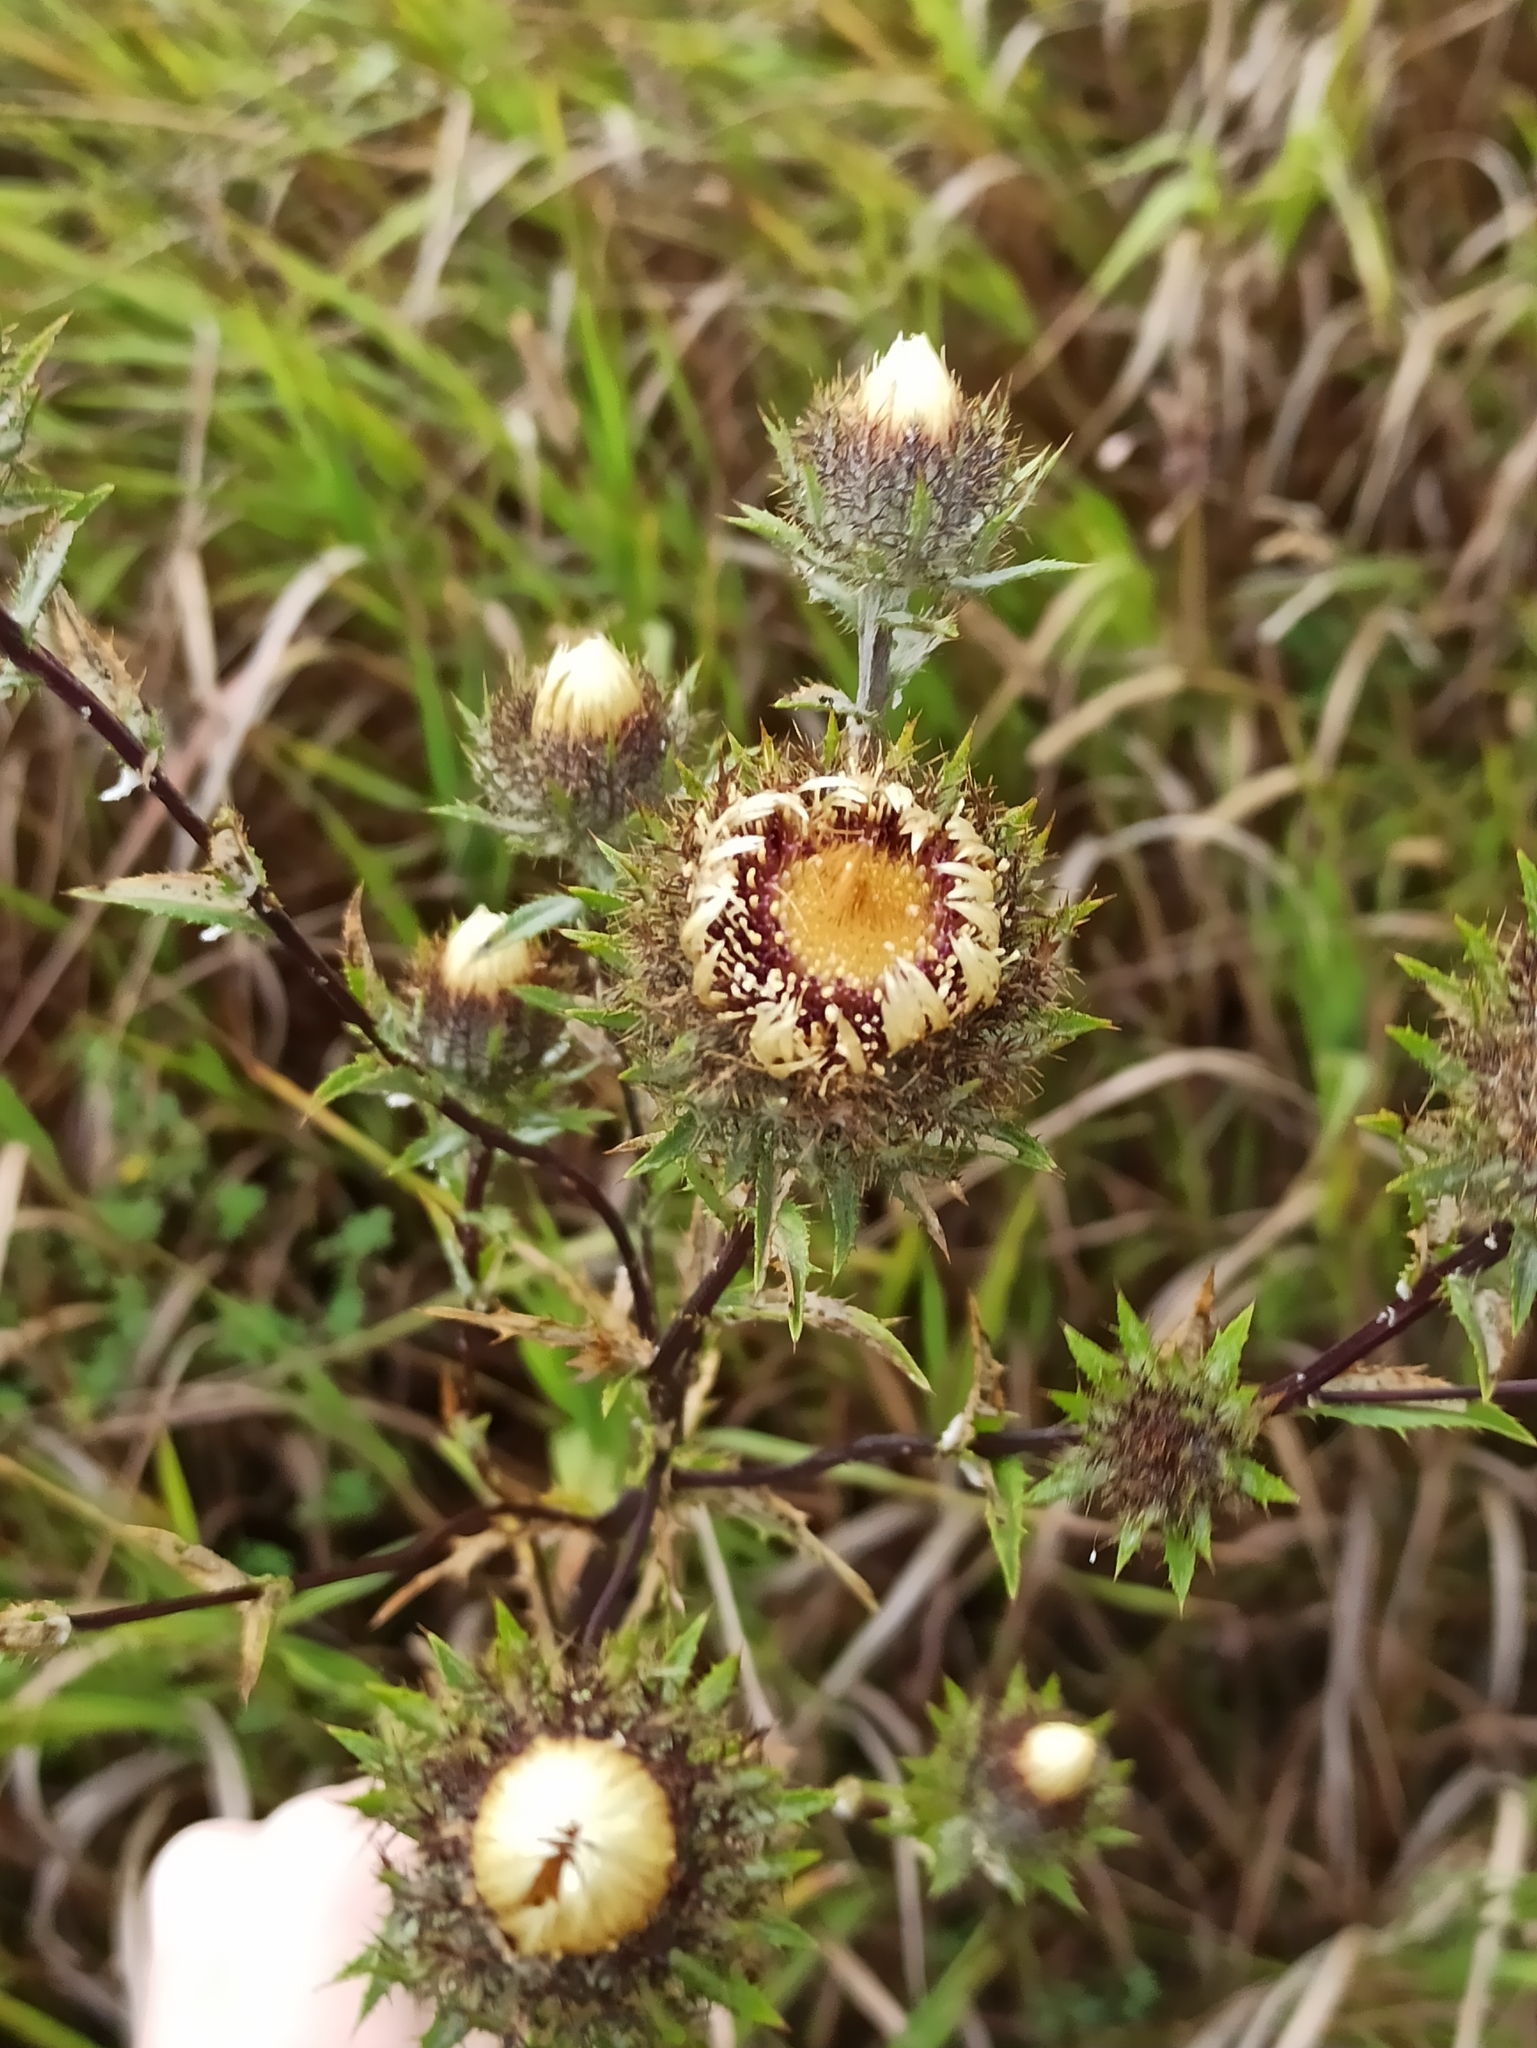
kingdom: Plantae
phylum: Tracheophyta
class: Magnoliopsida
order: Asterales
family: Asteraceae
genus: Carlina
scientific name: Carlina biebersteinii
